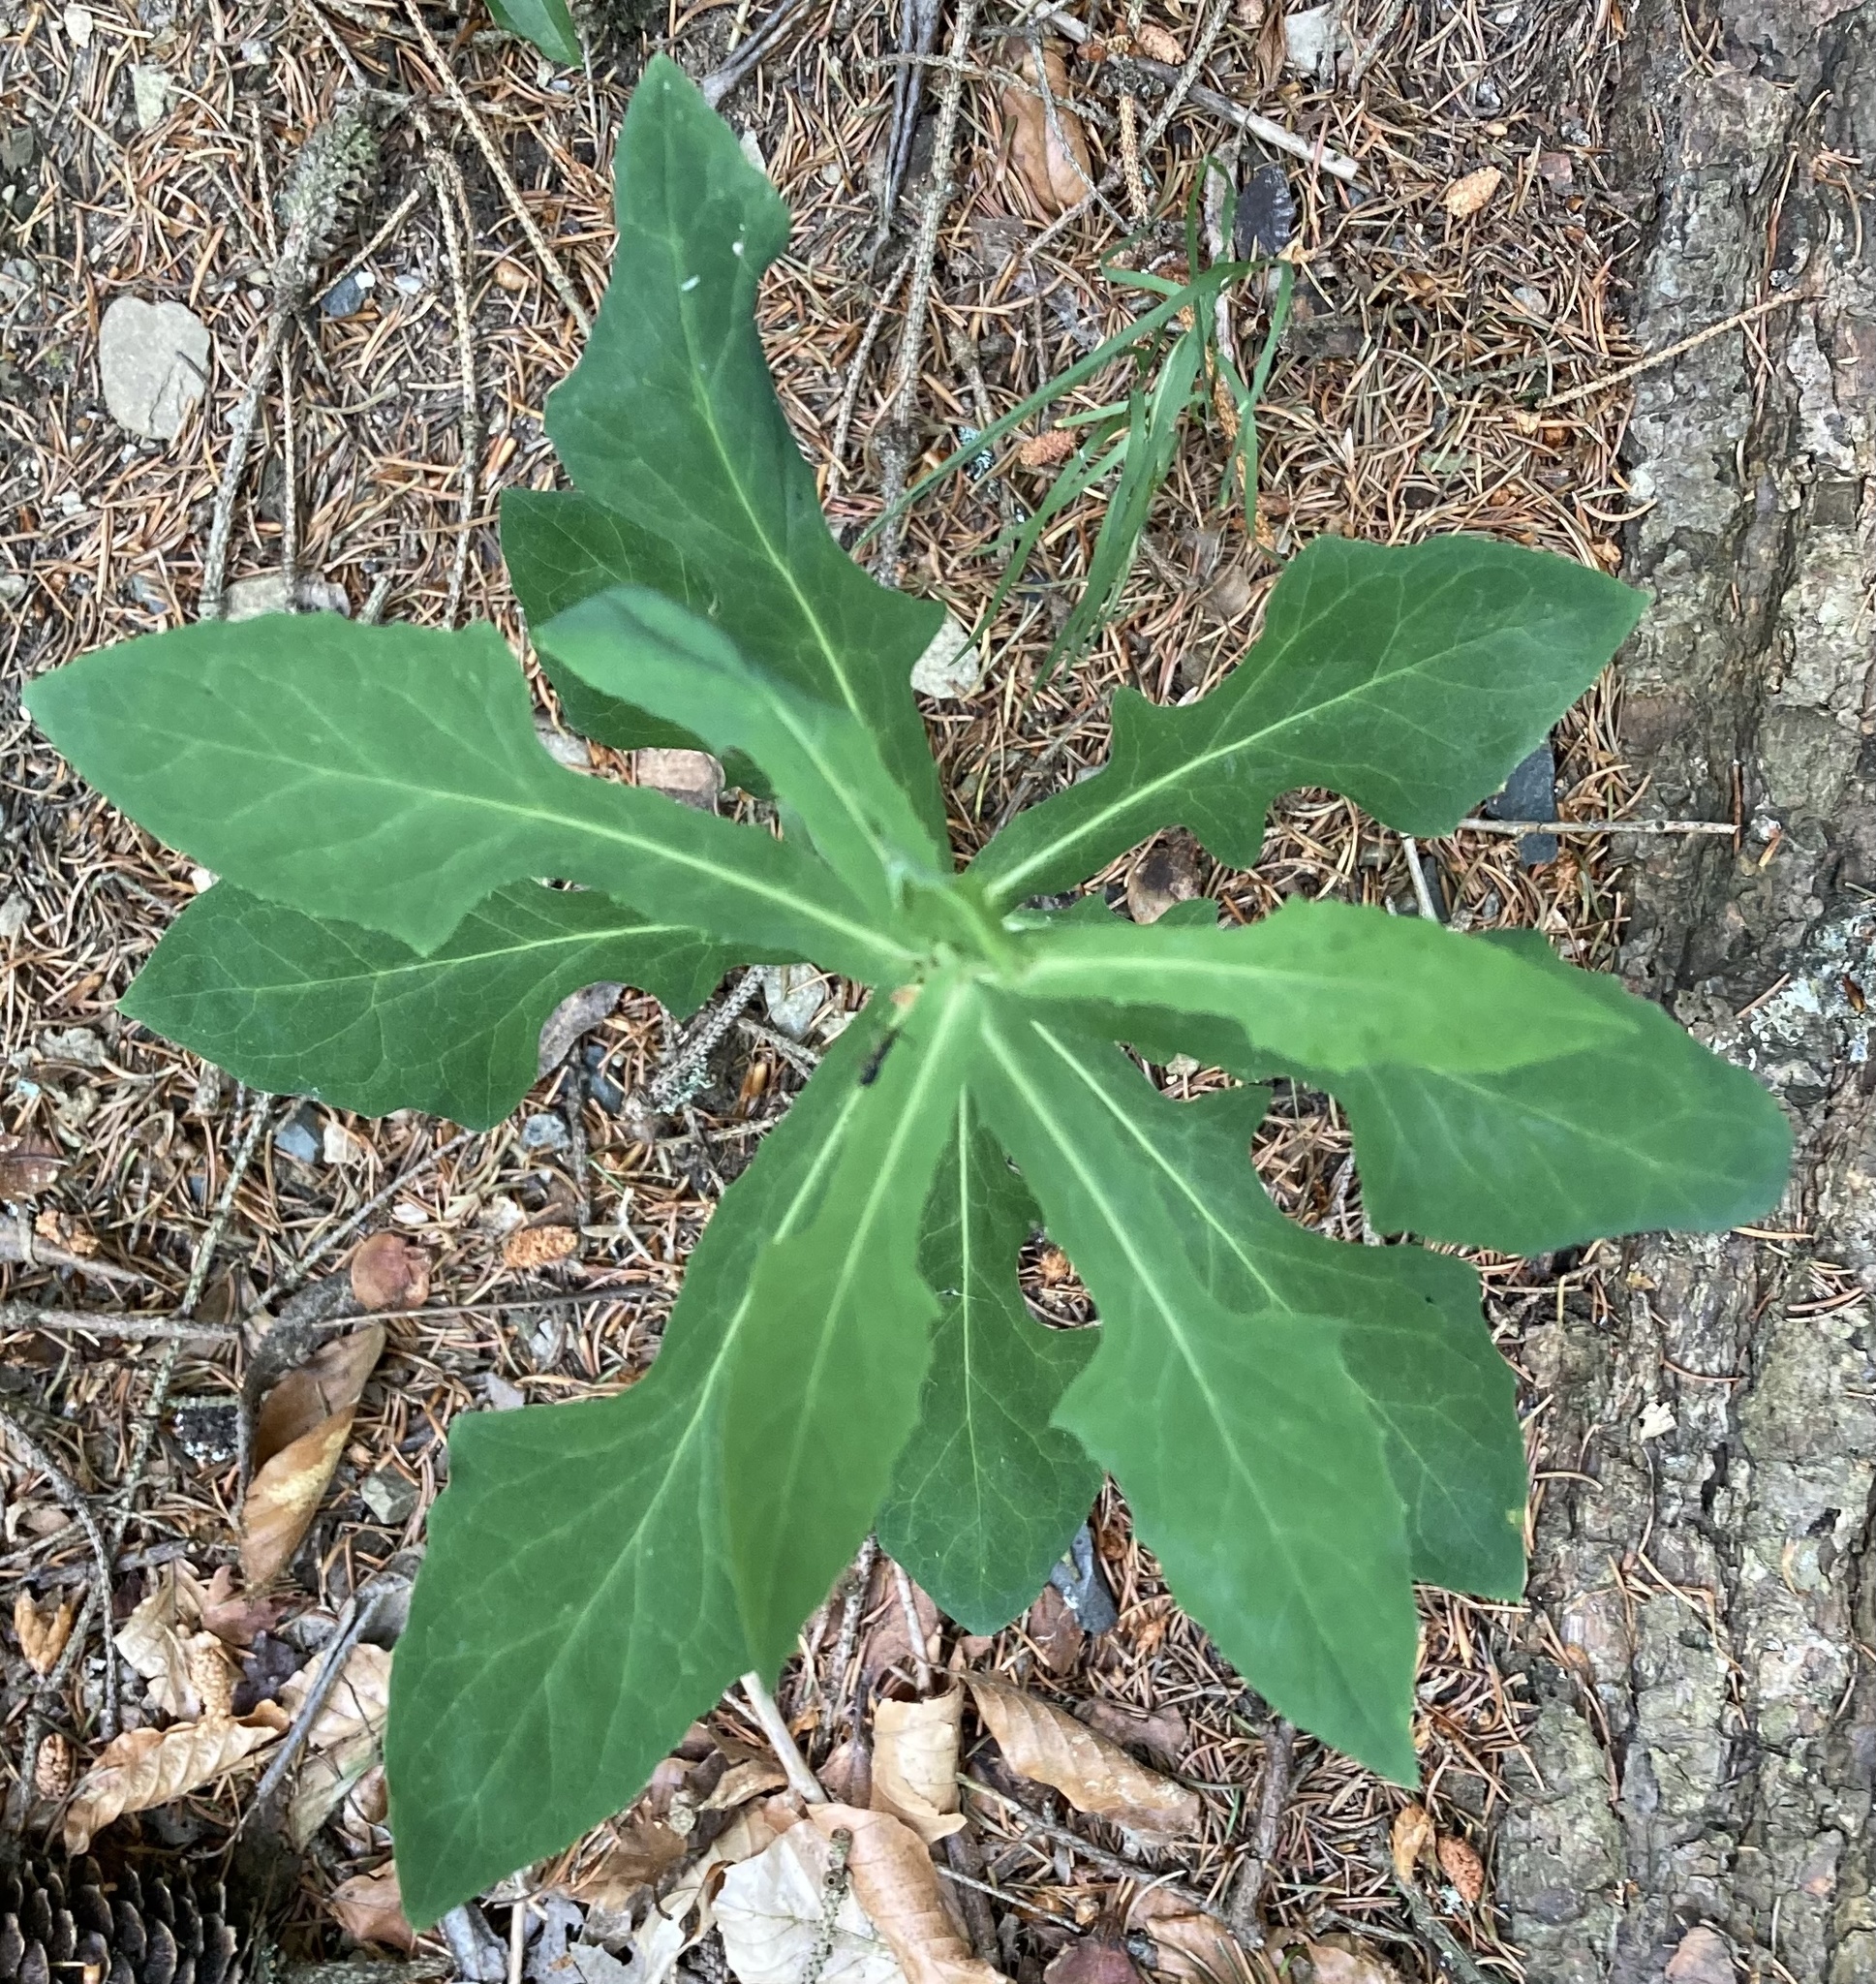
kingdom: Plantae
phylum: Tracheophyta
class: Magnoliopsida
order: Asterales
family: Asteraceae
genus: Prenanthes
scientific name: Prenanthes purpurea
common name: Purple lettuce
